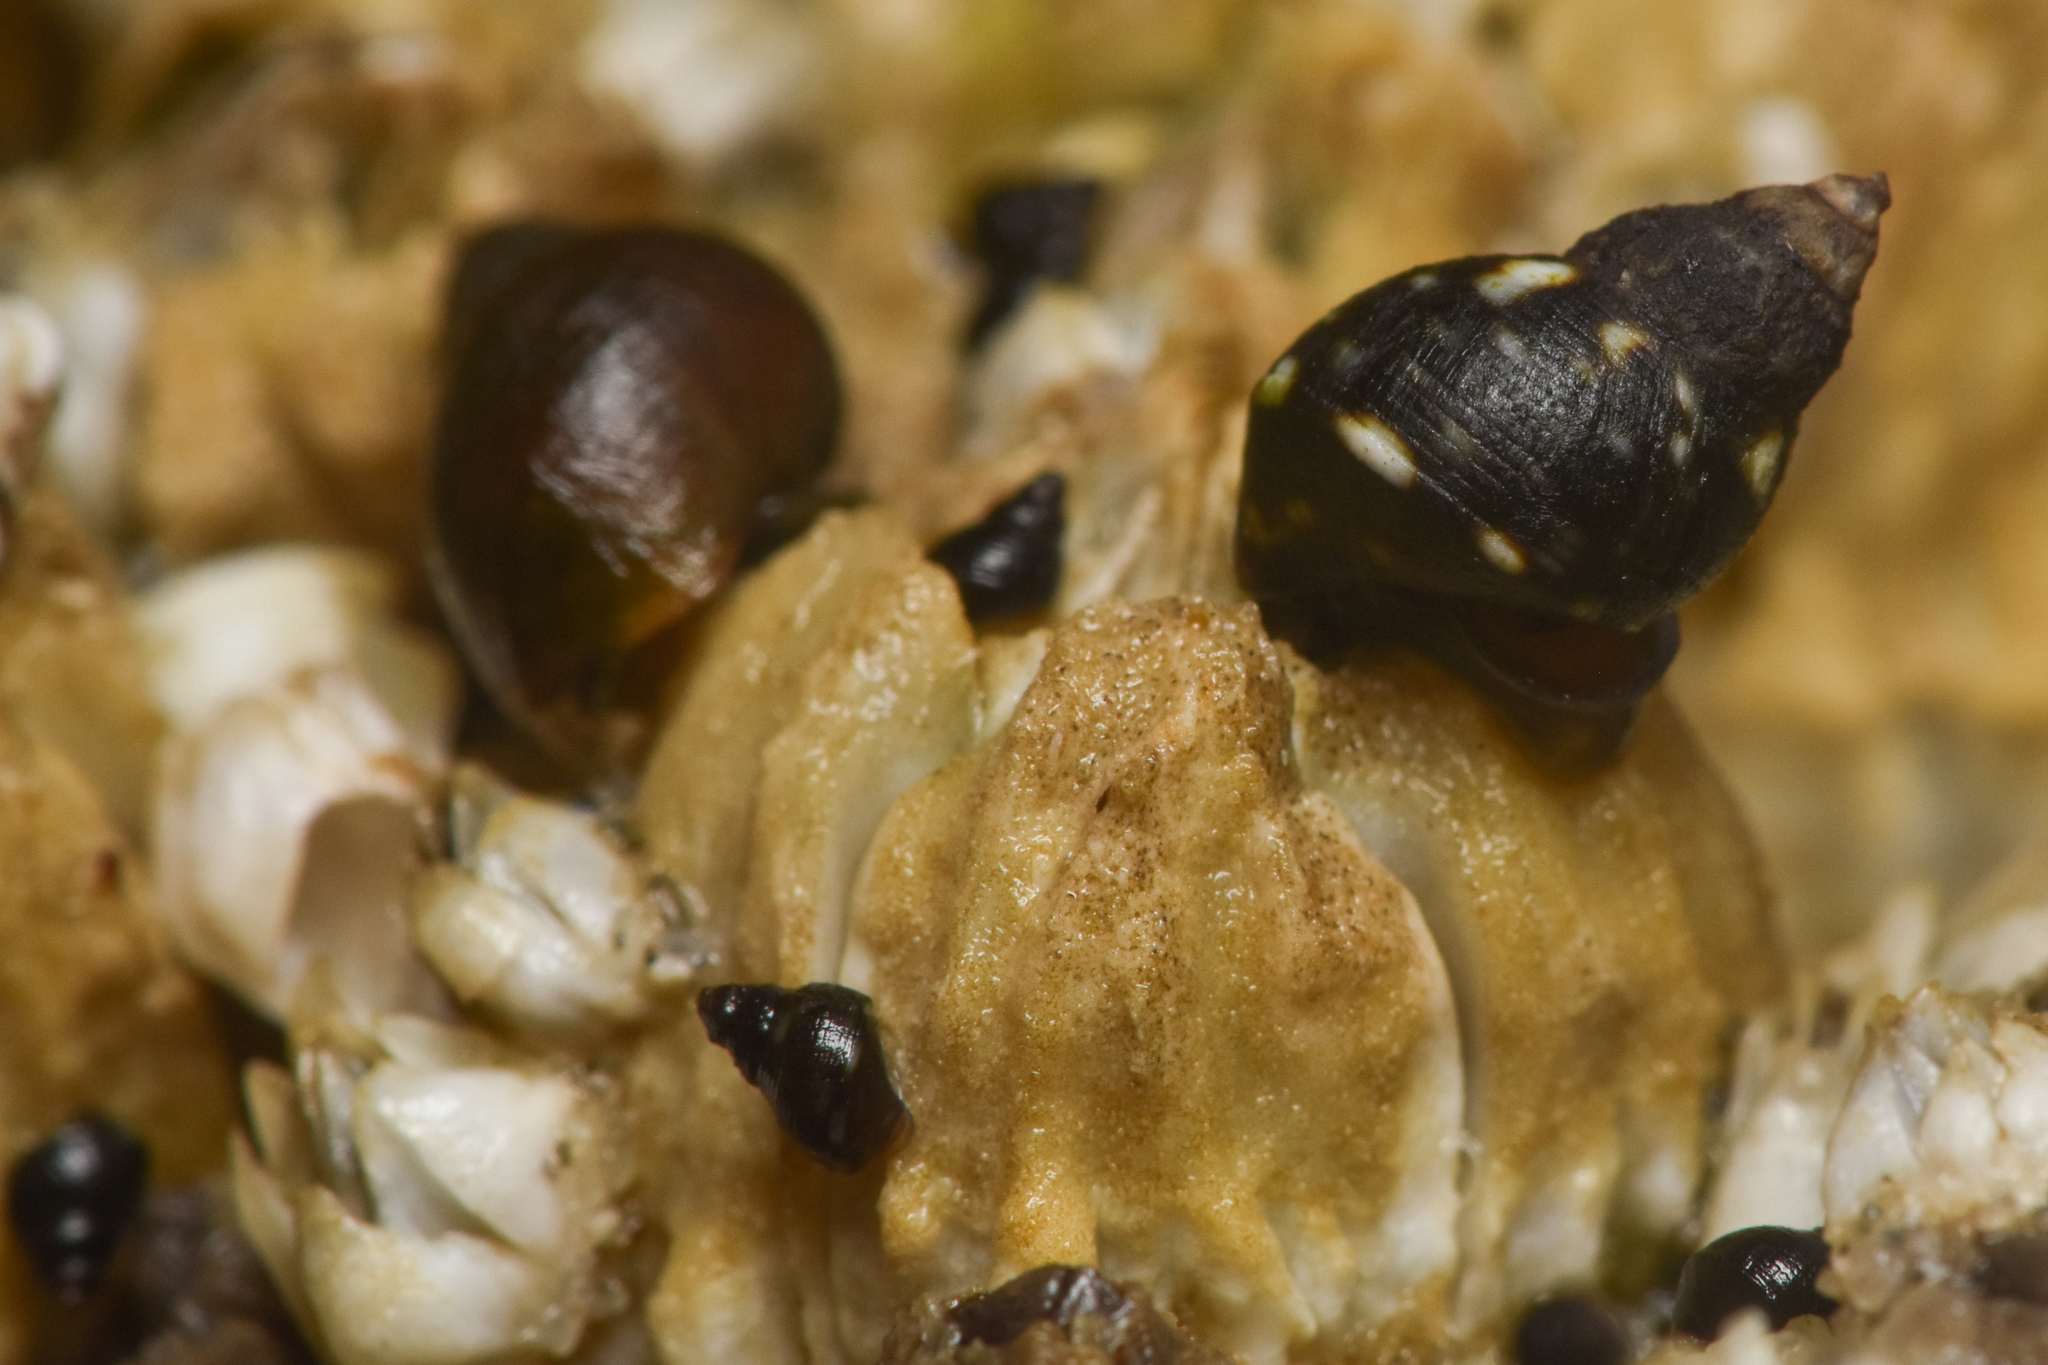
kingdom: Animalia
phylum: Mollusca
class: Gastropoda
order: Littorinimorpha
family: Littorinidae
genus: Littorina
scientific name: Littorina scutulata
